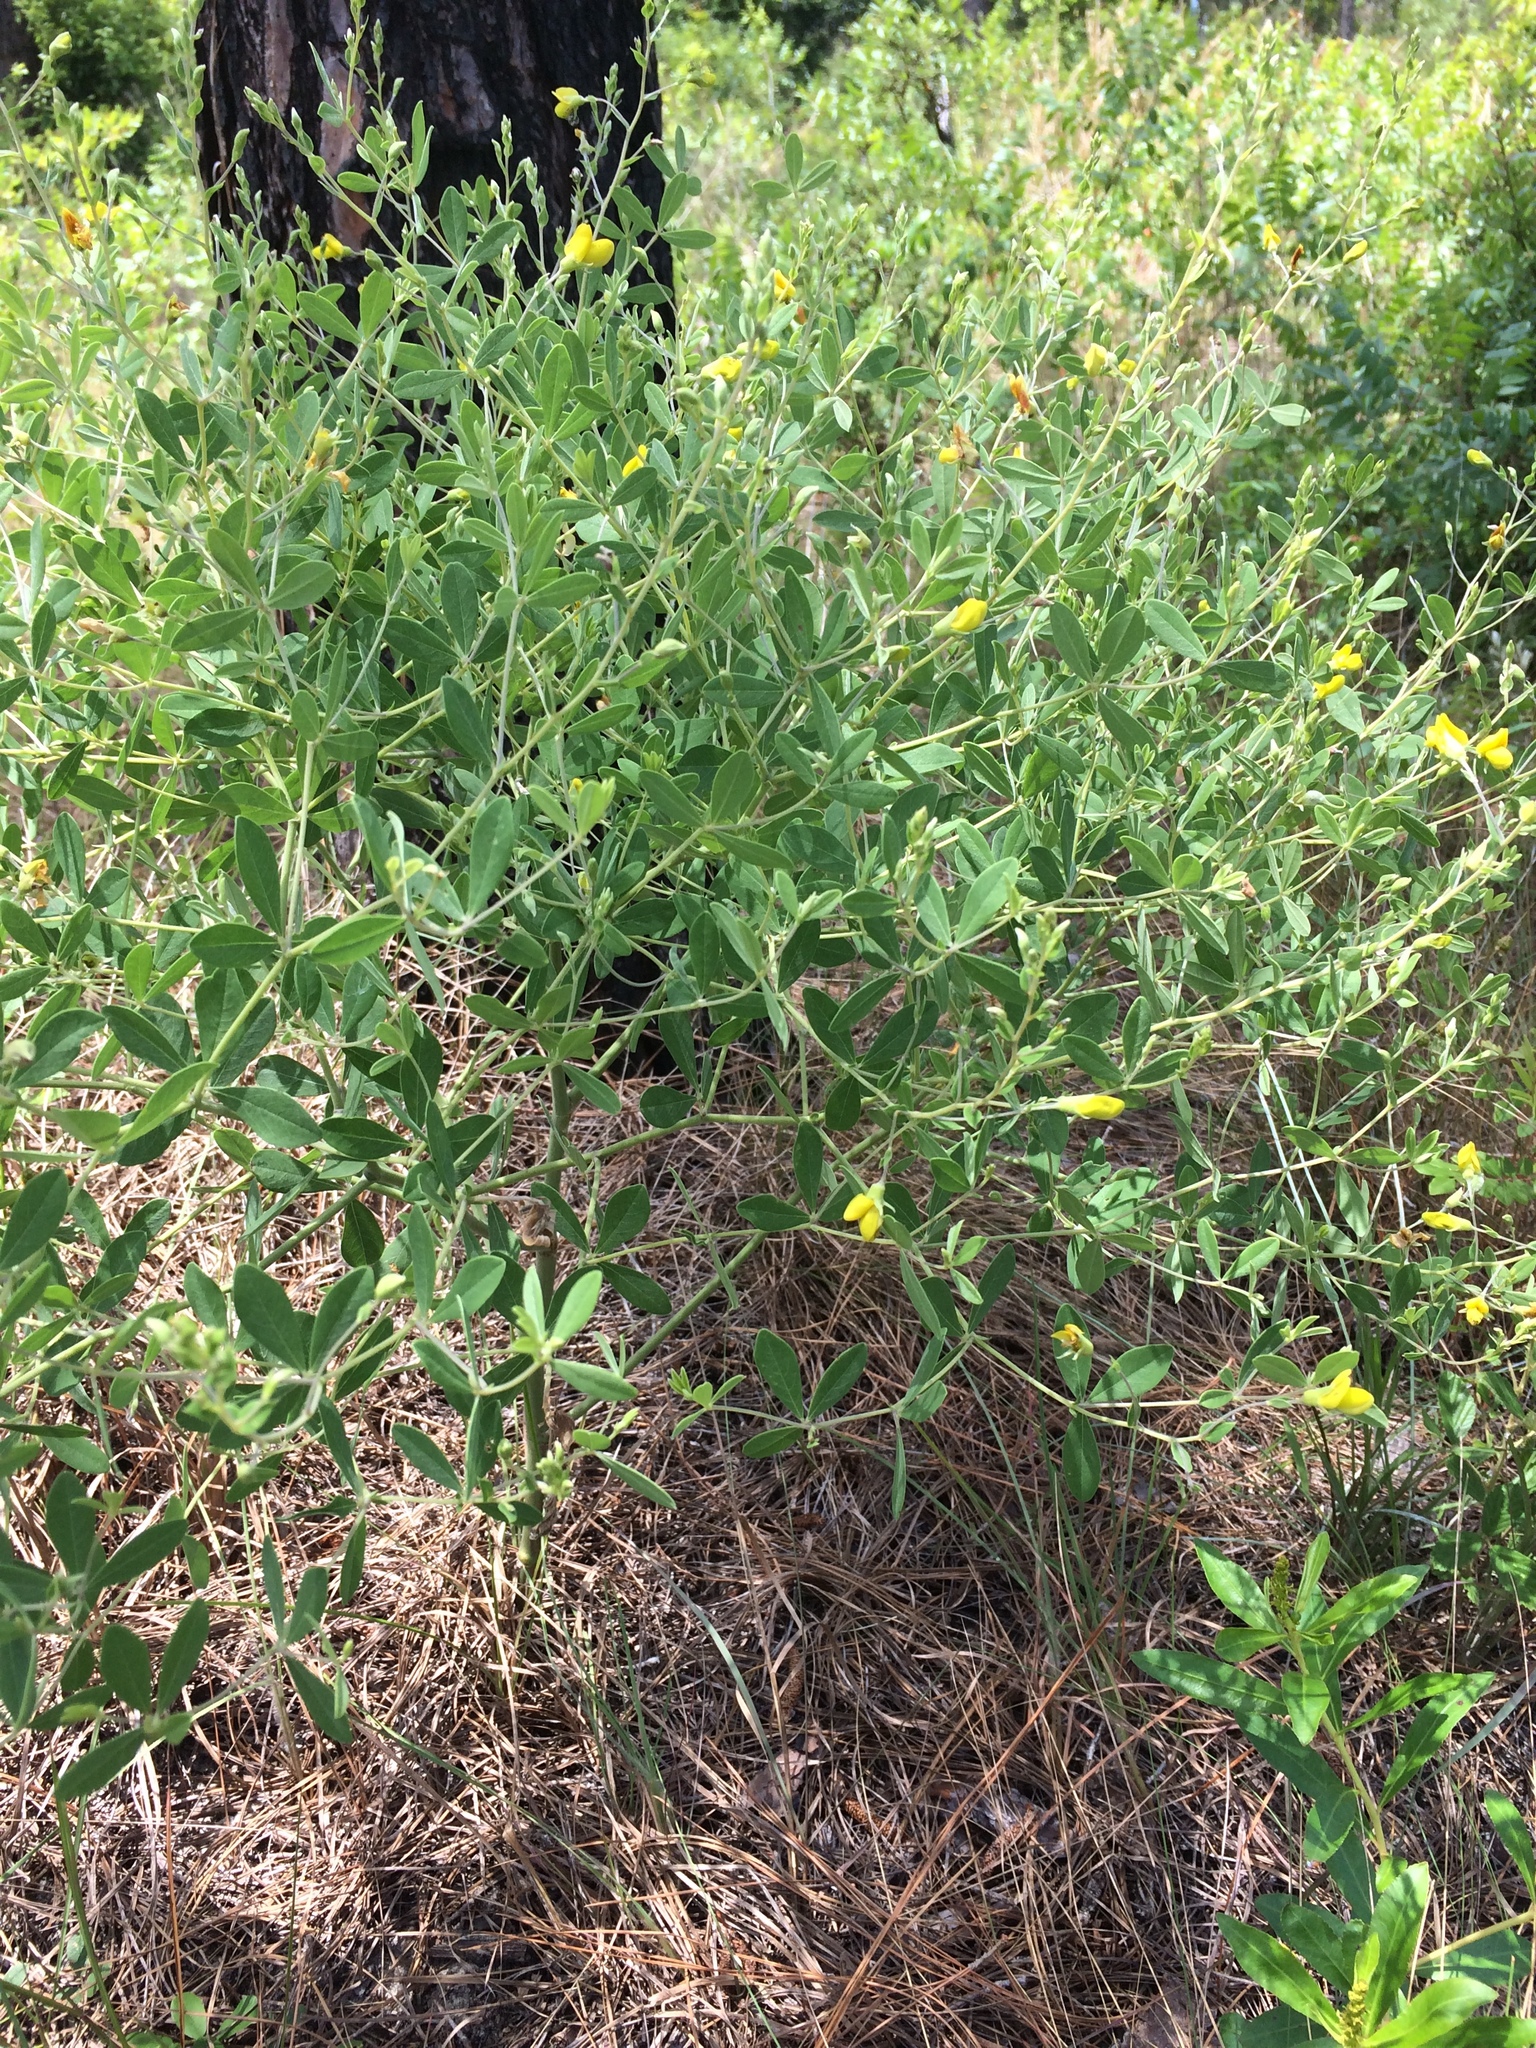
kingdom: Plantae
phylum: Tracheophyta
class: Magnoliopsida
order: Fabales
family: Fabaceae
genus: Baptisia
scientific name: Baptisia lecontei
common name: Pineland wild indigo
